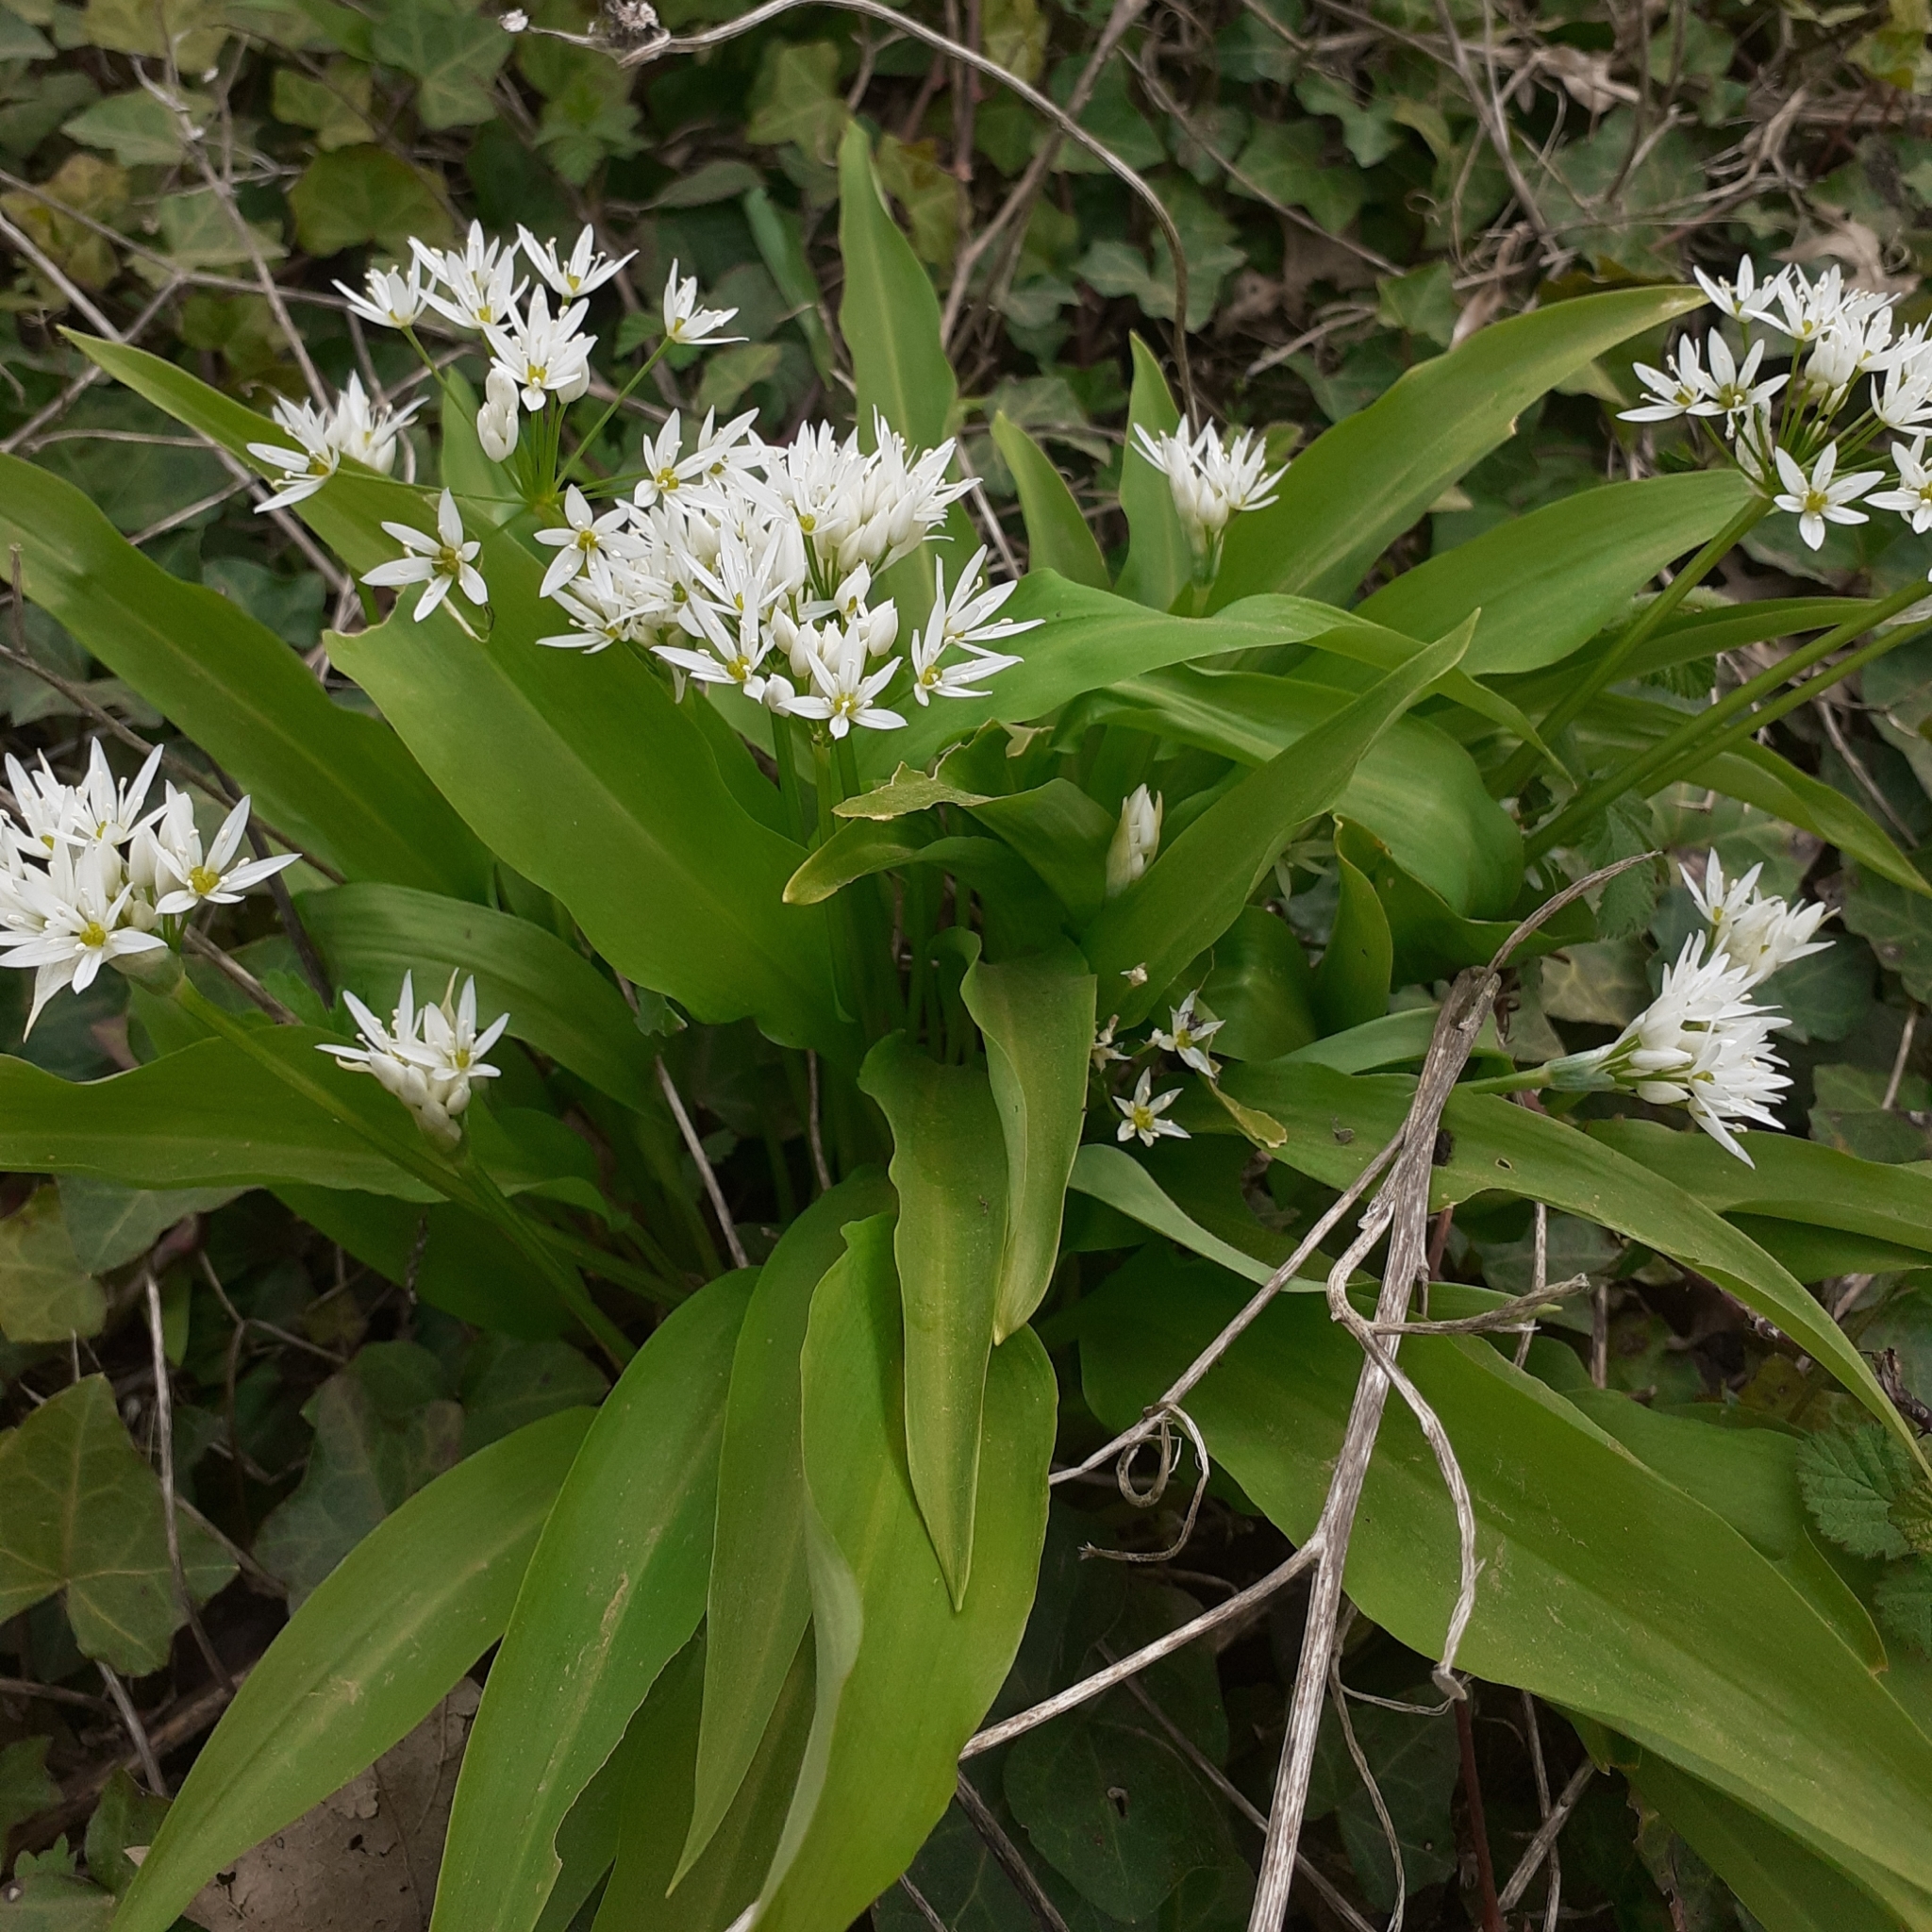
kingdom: Plantae
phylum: Tracheophyta
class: Liliopsida
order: Asparagales
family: Amaryllidaceae
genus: Allium
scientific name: Allium ursinum
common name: Ramsons
